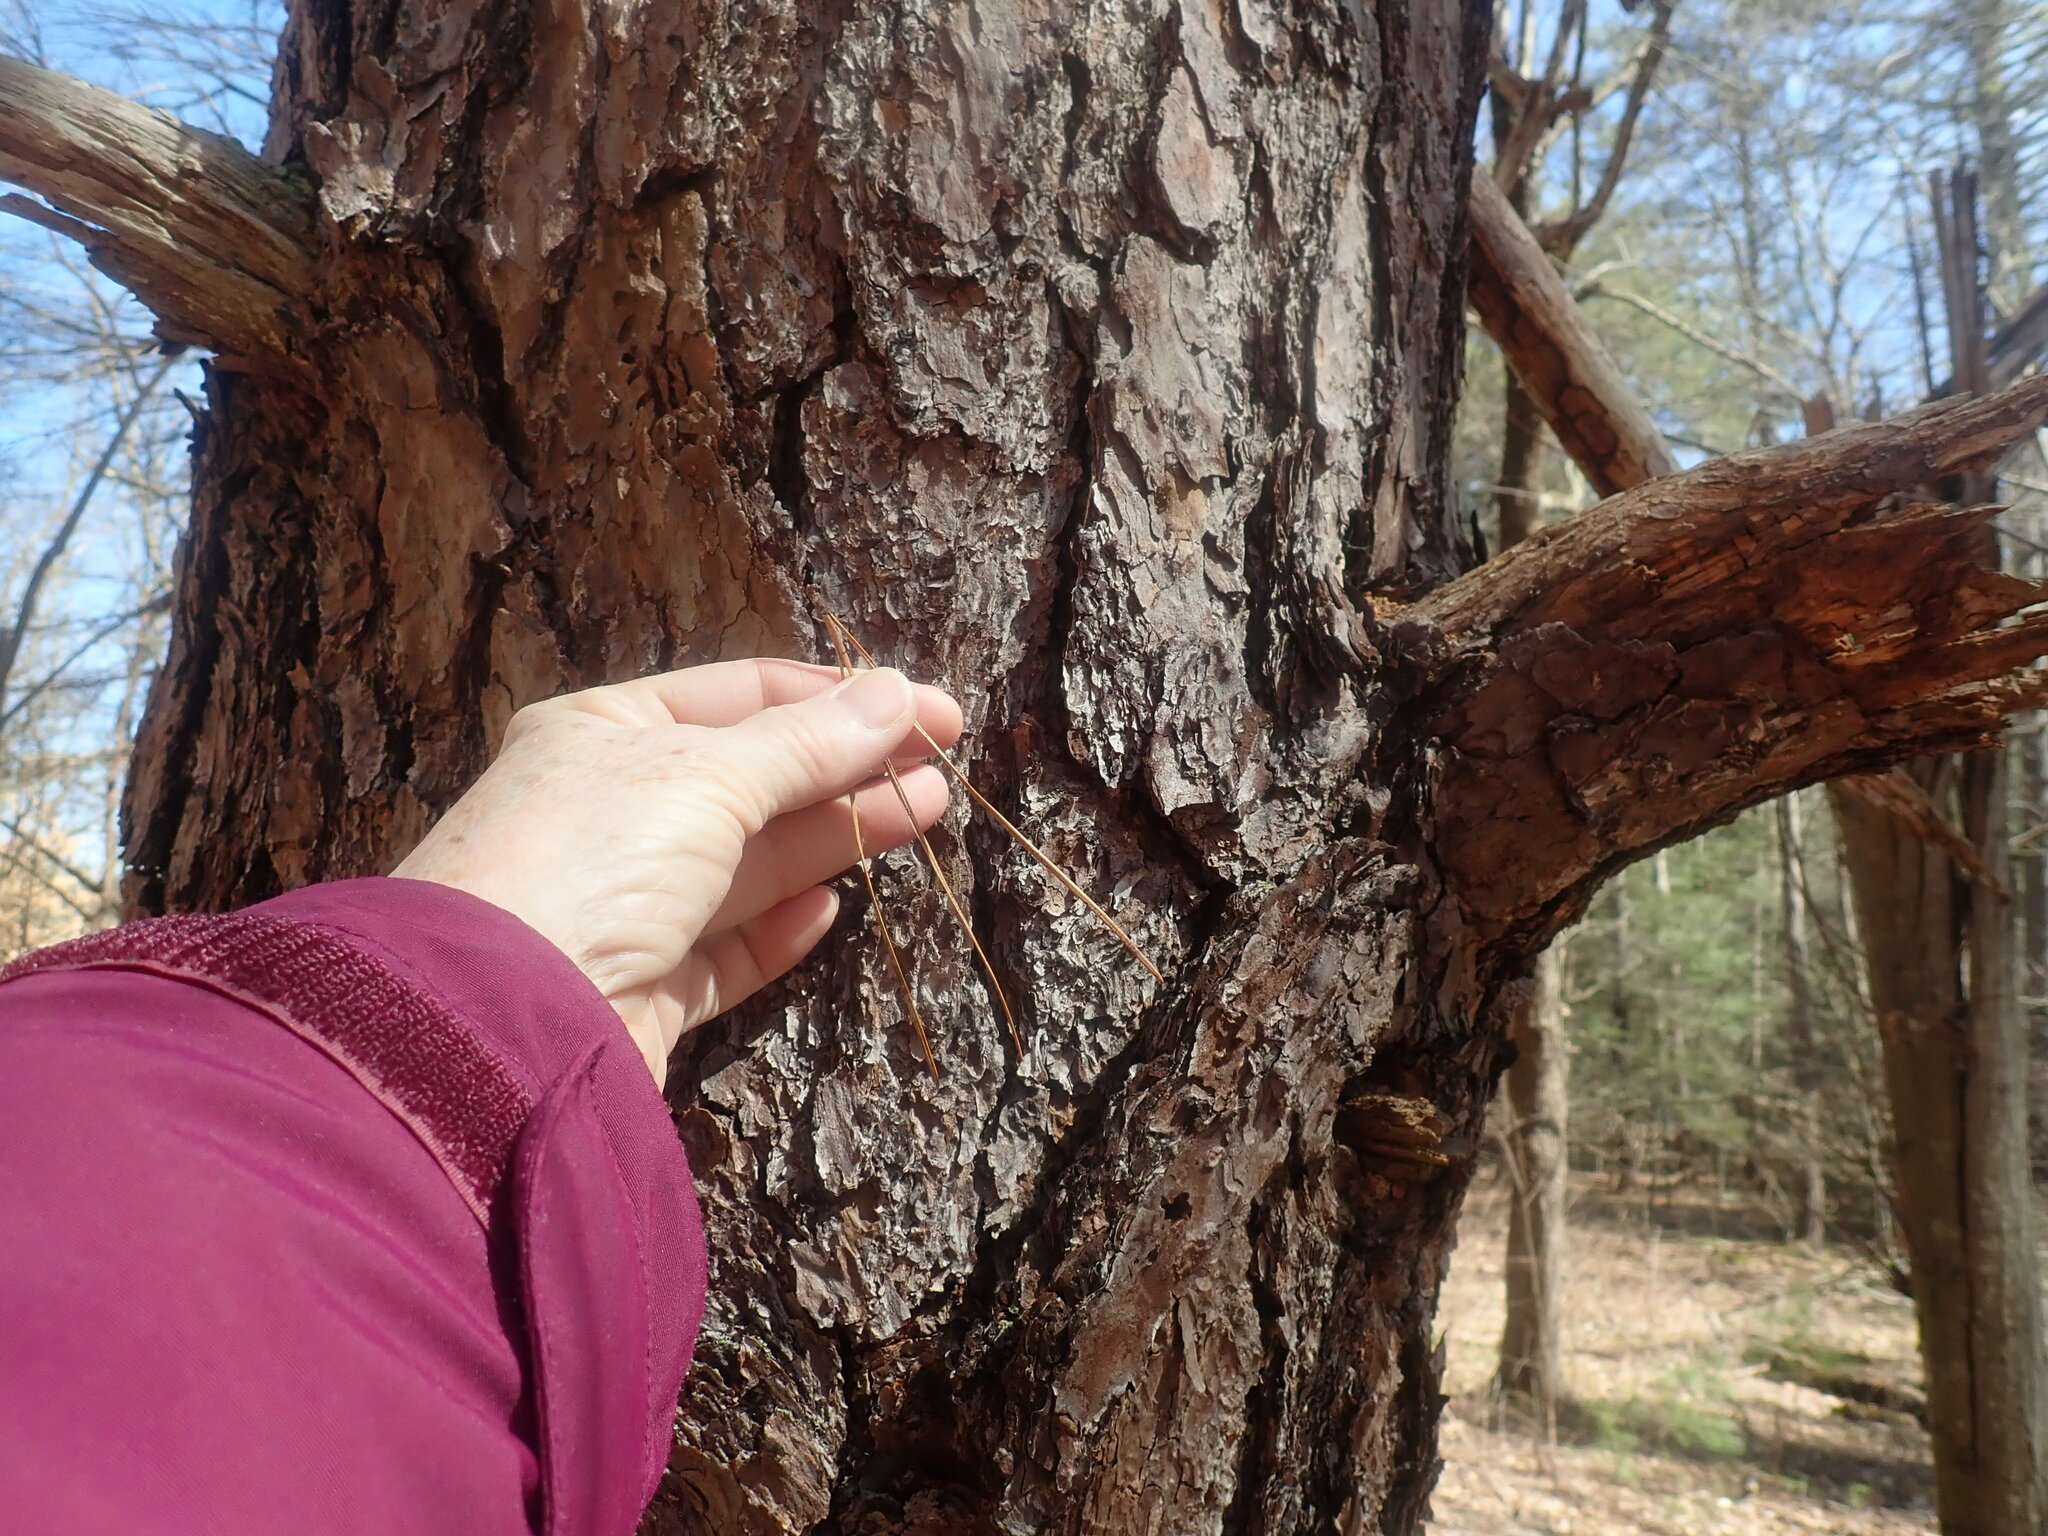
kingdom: Plantae
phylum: Tracheophyta
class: Pinopsida
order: Pinales
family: Pinaceae
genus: Pinus
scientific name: Pinus rigida
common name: Pitch pine
